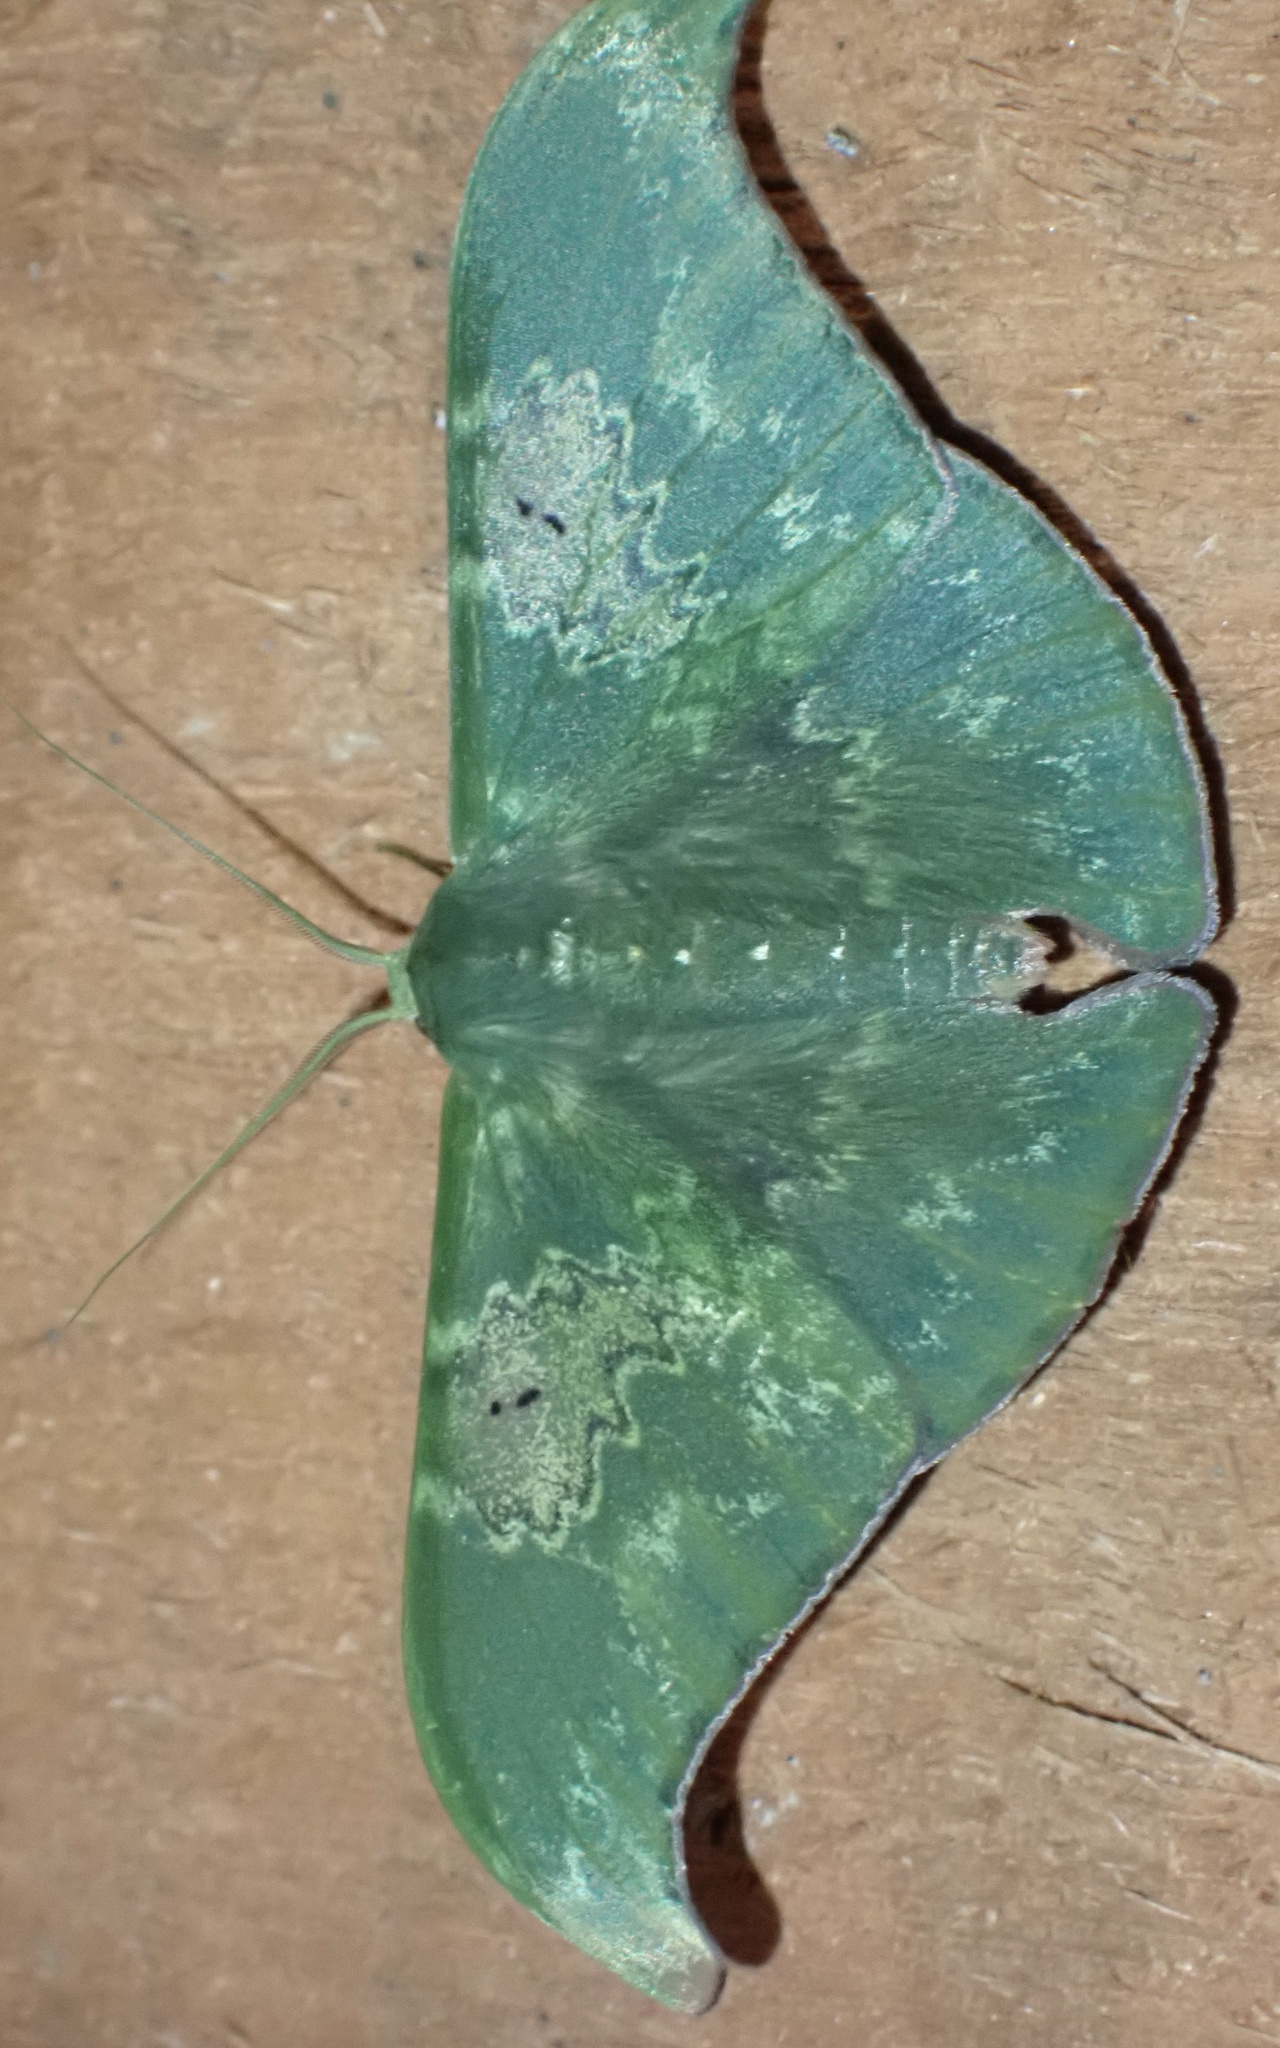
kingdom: Animalia
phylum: Arthropoda
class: Insecta
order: Lepidoptera
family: Geometridae
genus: Tanaorhinus
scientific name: Tanaorhinus unipuncta
